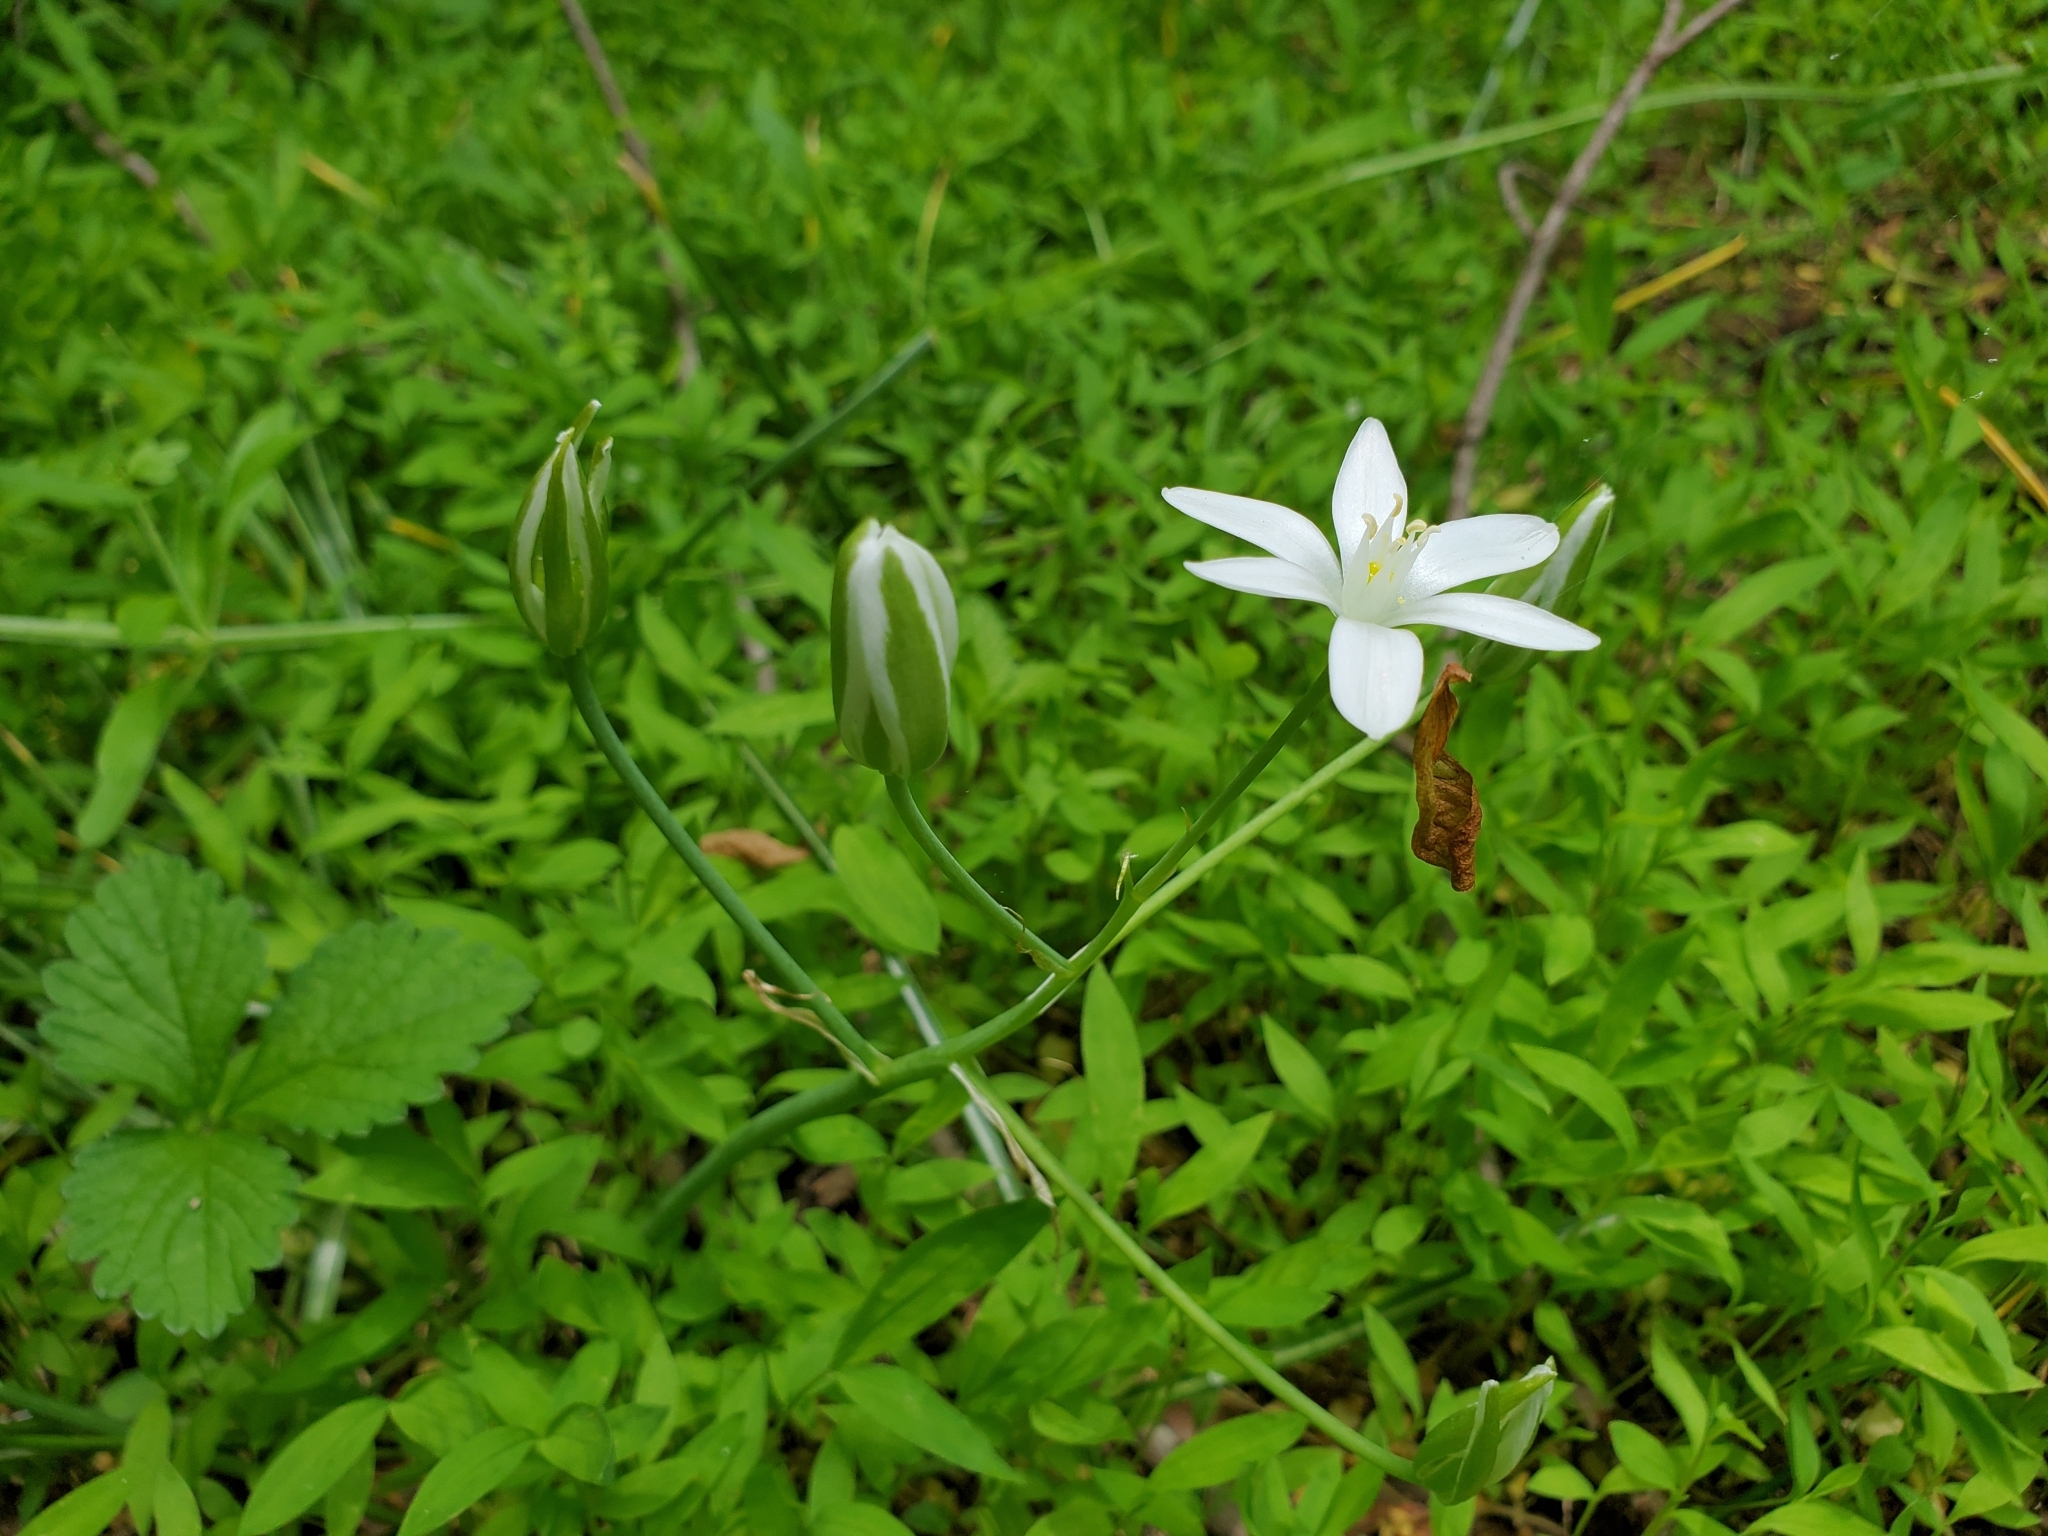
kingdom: Plantae
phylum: Tracheophyta
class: Liliopsida
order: Asparagales
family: Asparagaceae
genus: Ornithogalum
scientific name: Ornithogalum umbellatum
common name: Garden star-of-bethlehem
